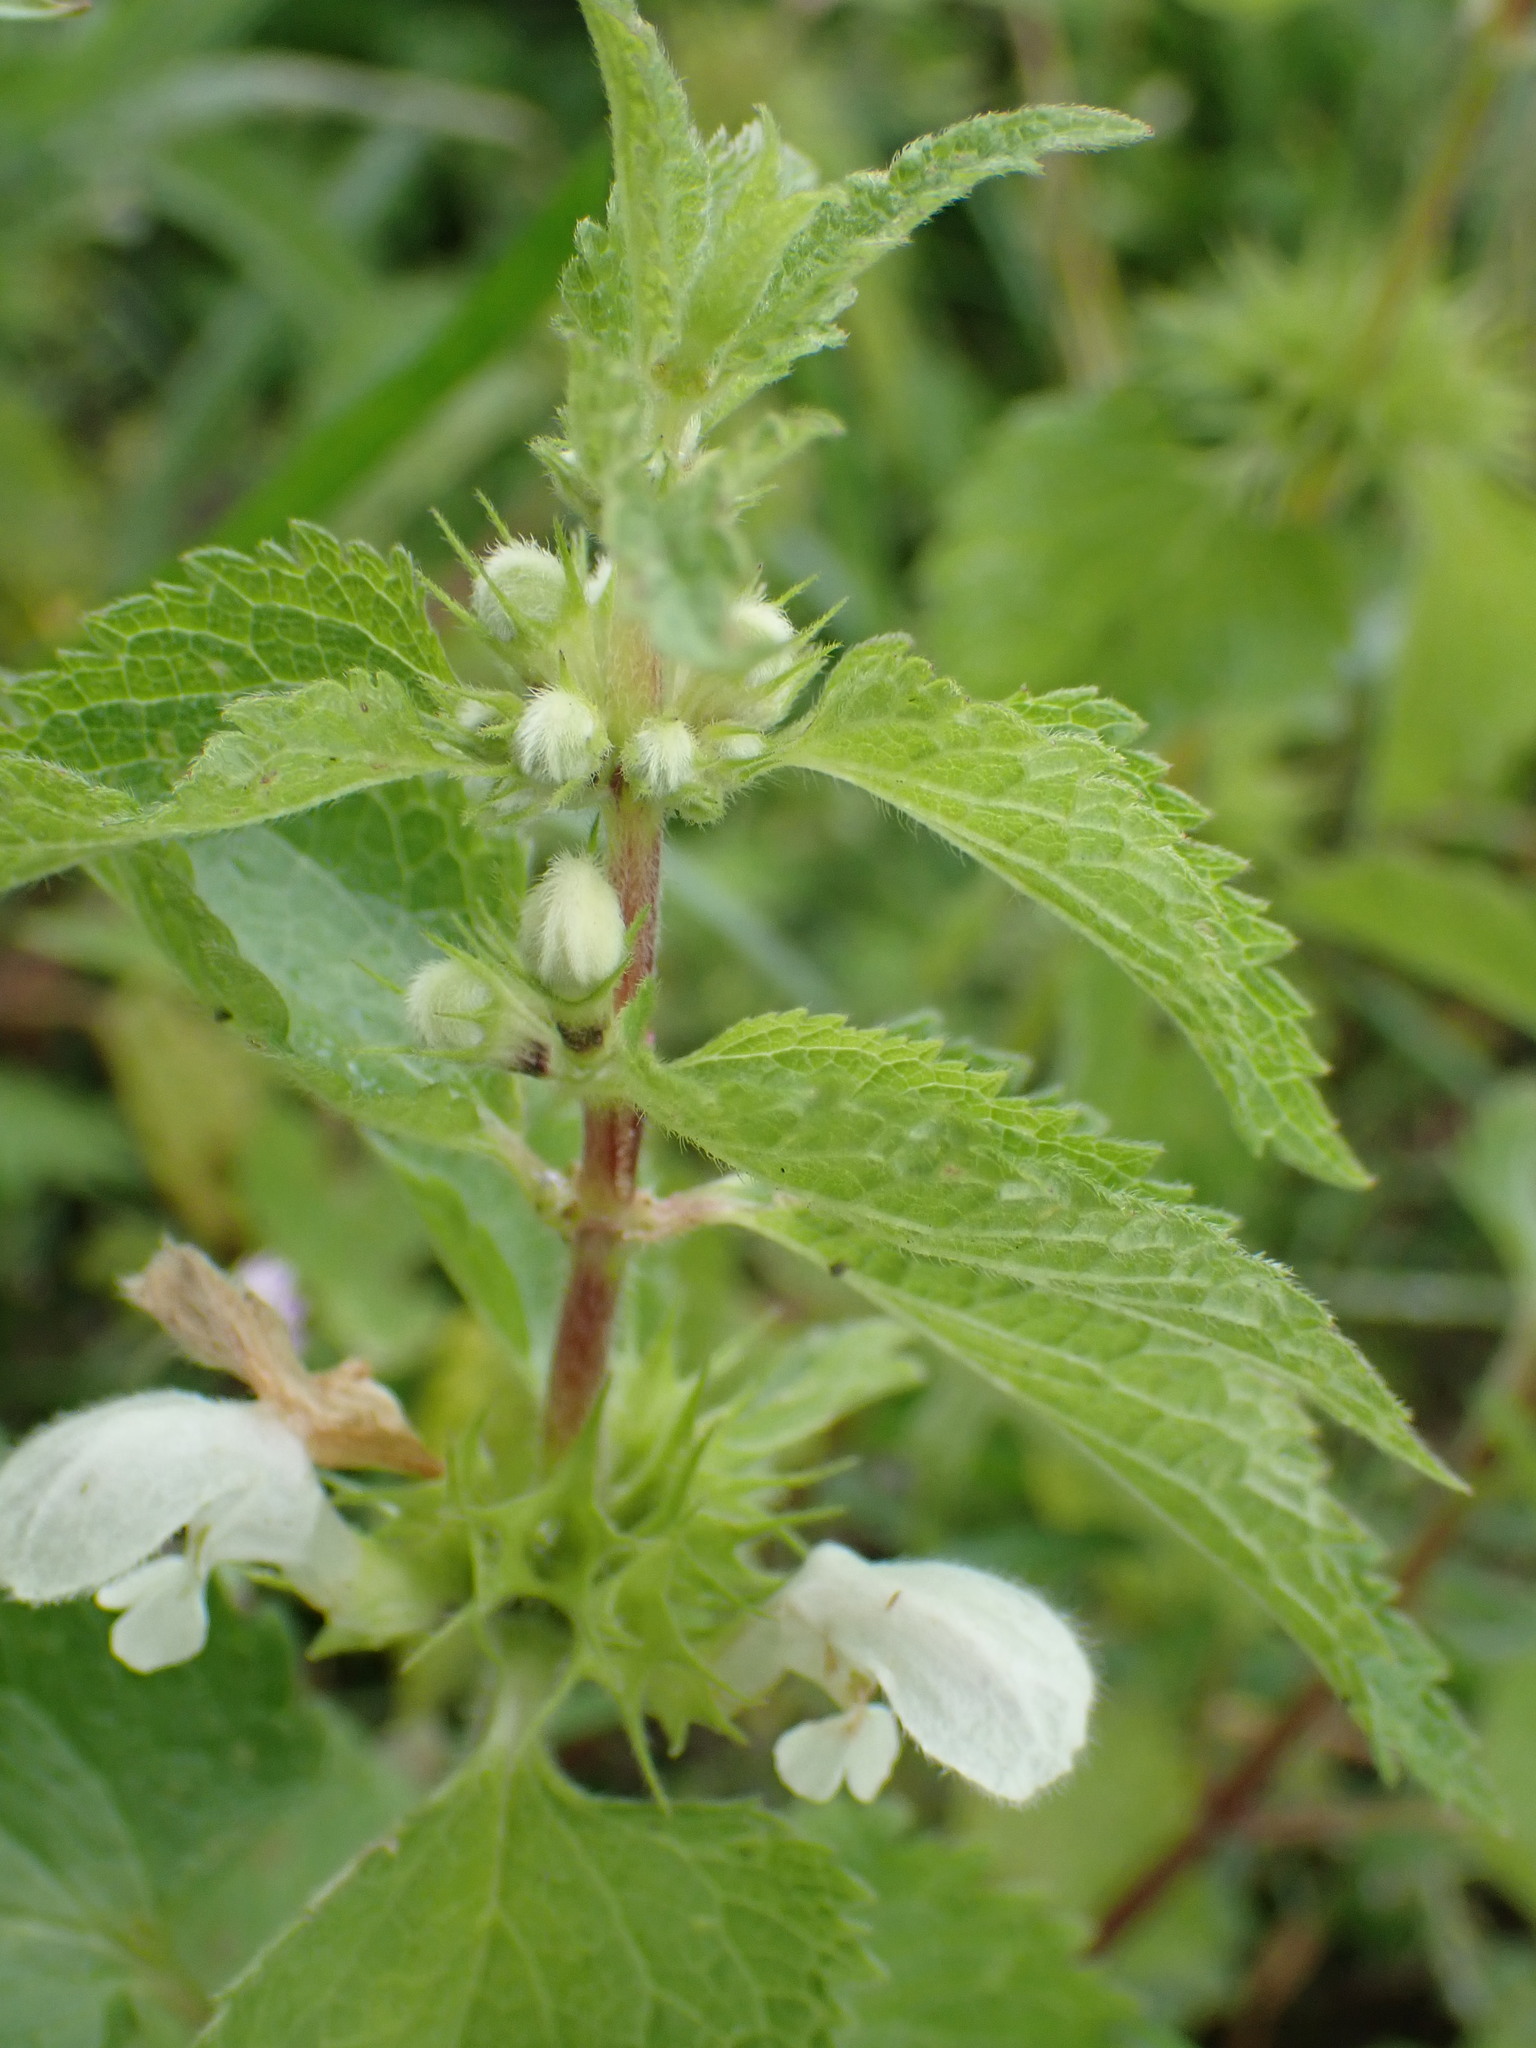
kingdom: Plantae
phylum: Tracheophyta
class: Magnoliopsida
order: Lamiales
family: Lamiaceae
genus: Lamium
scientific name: Lamium album
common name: White dead-nettle
